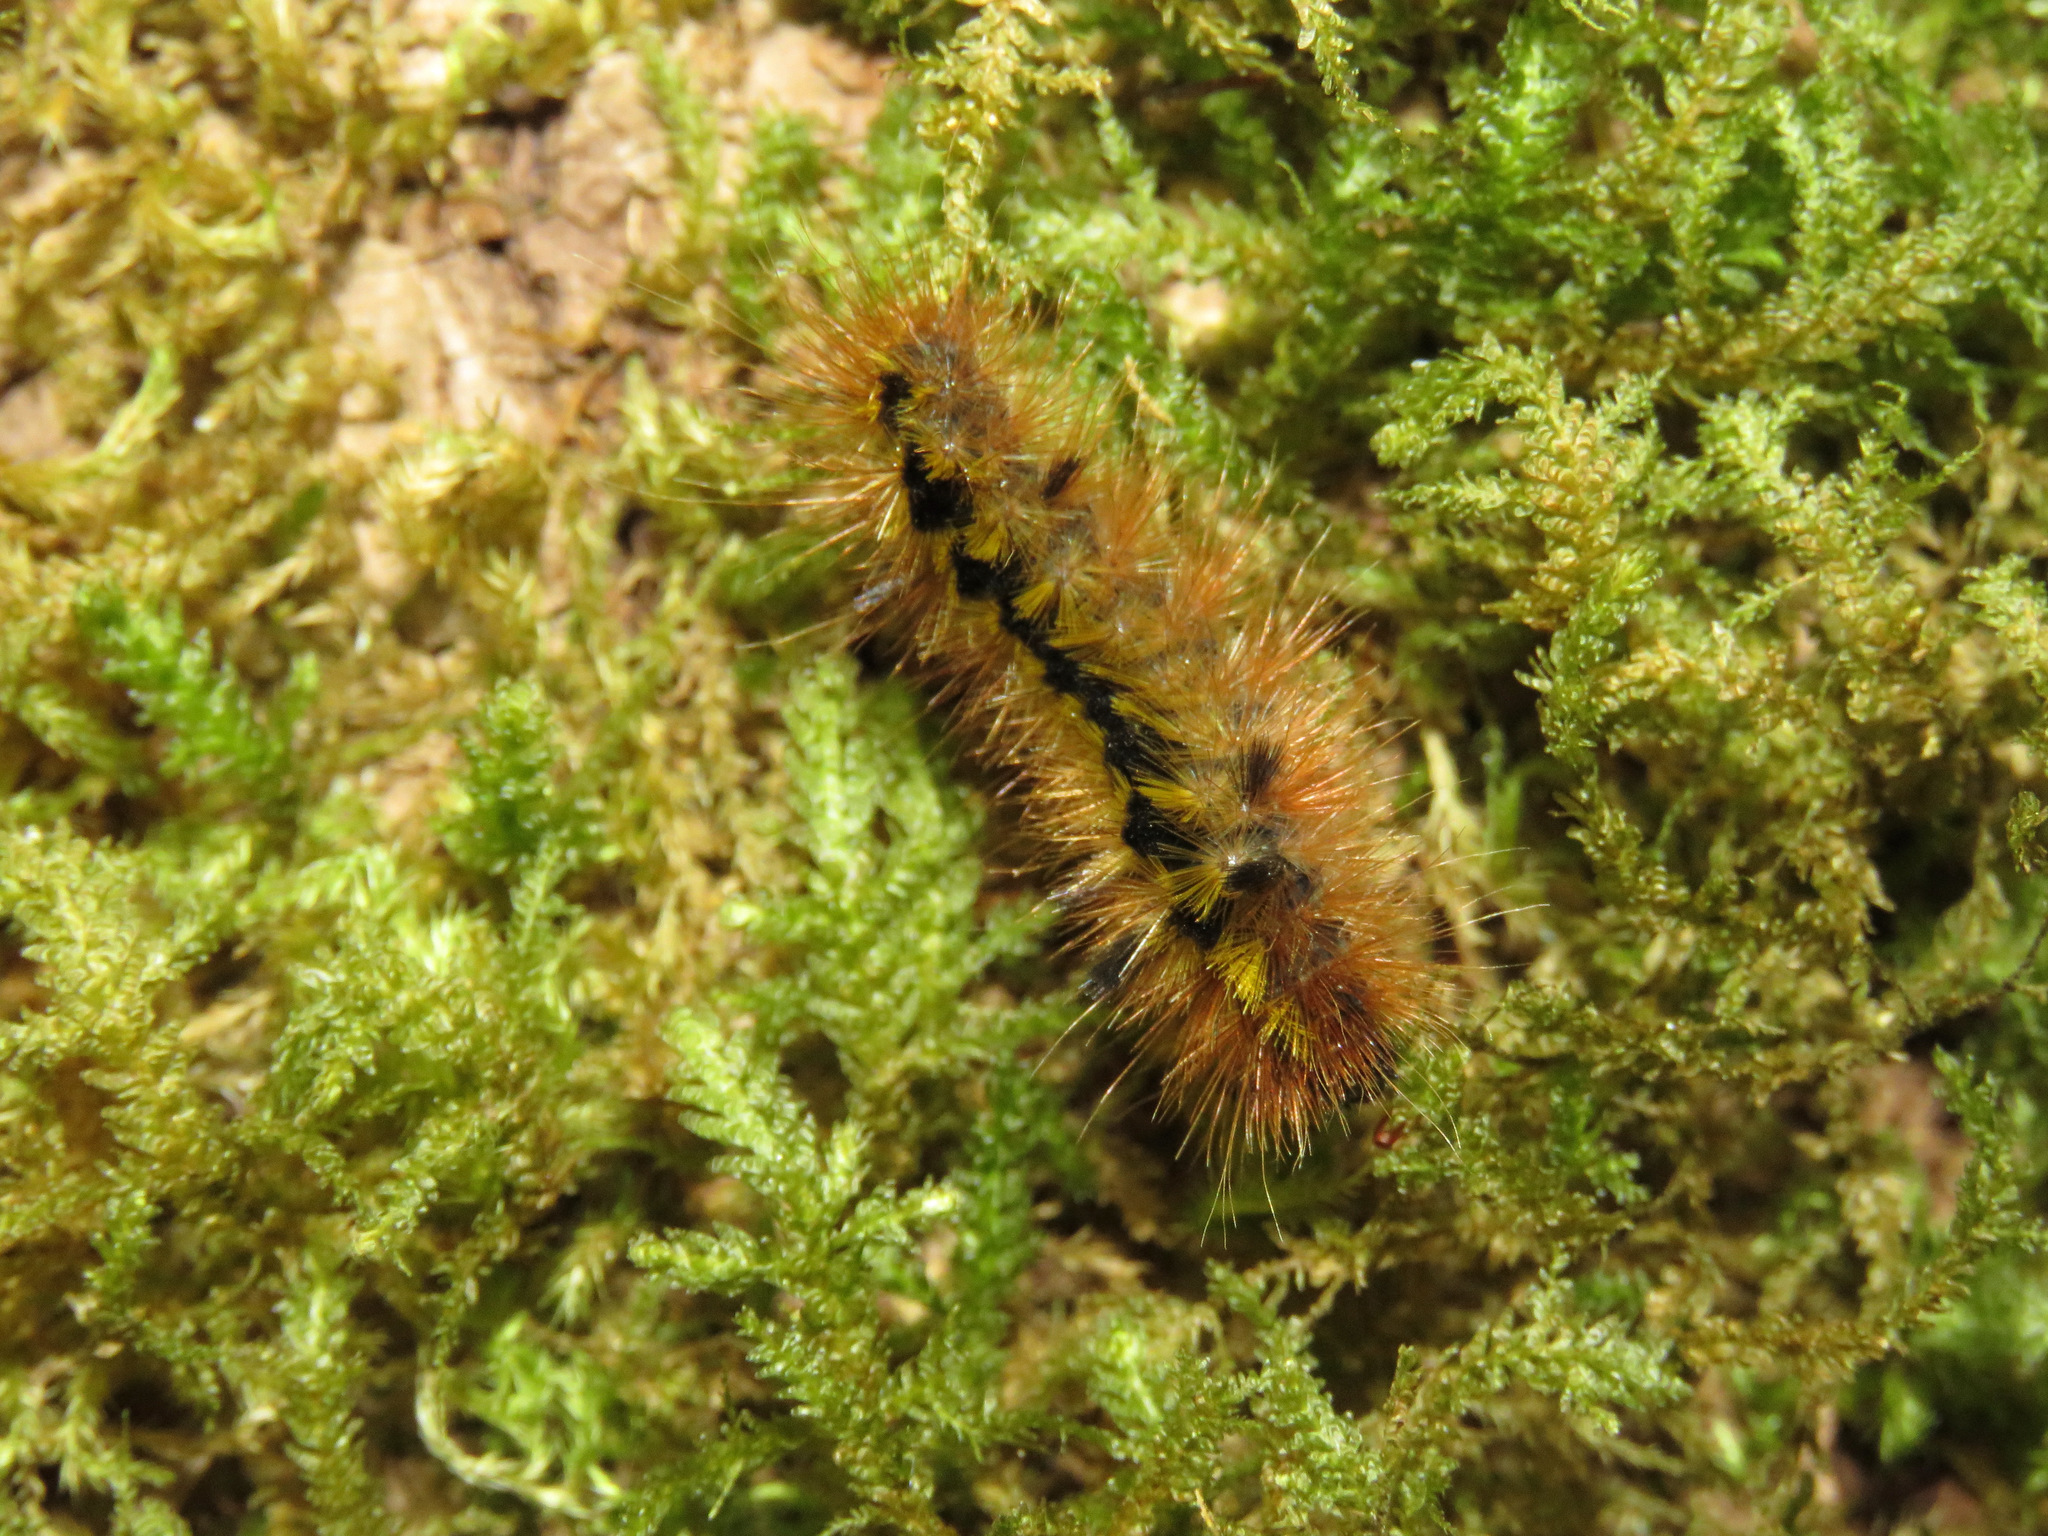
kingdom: Animalia
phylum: Arthropoda
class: Insecta
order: Lepidoptera
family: Erebidae
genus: Lophocampa
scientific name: Lophocampa argentata
